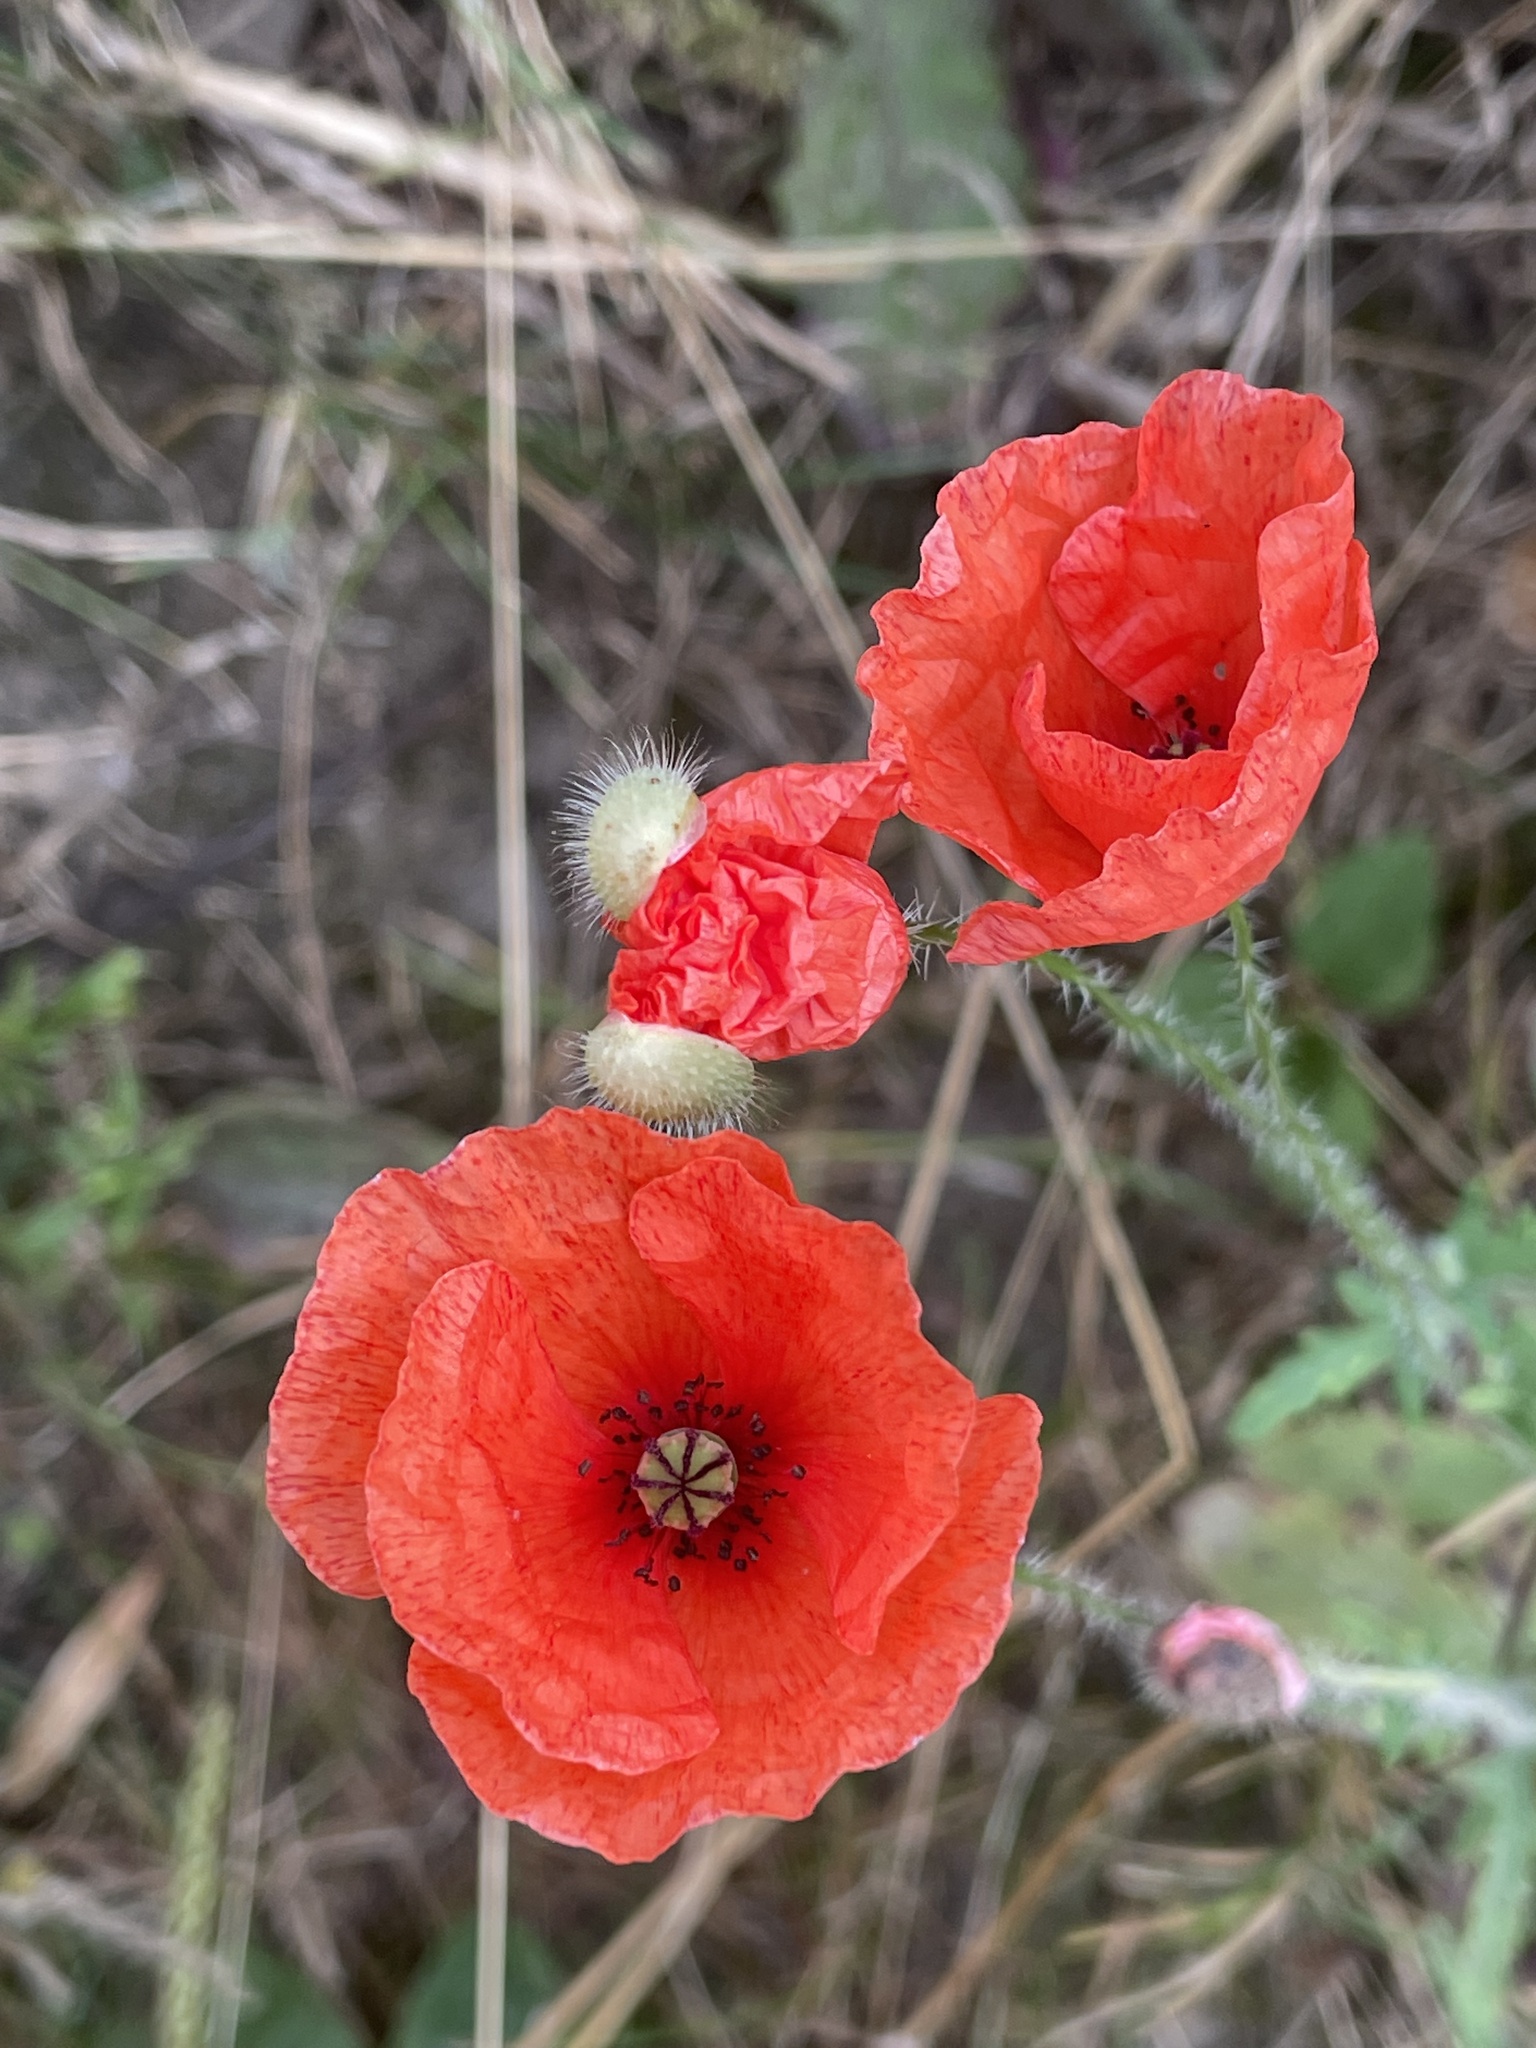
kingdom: Plantae
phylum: Tracheophyta
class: Magnoliopsida
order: Ranunculales
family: Papaveraceae
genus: Papaver
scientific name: Papaver rhoeas
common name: Corn poppy
